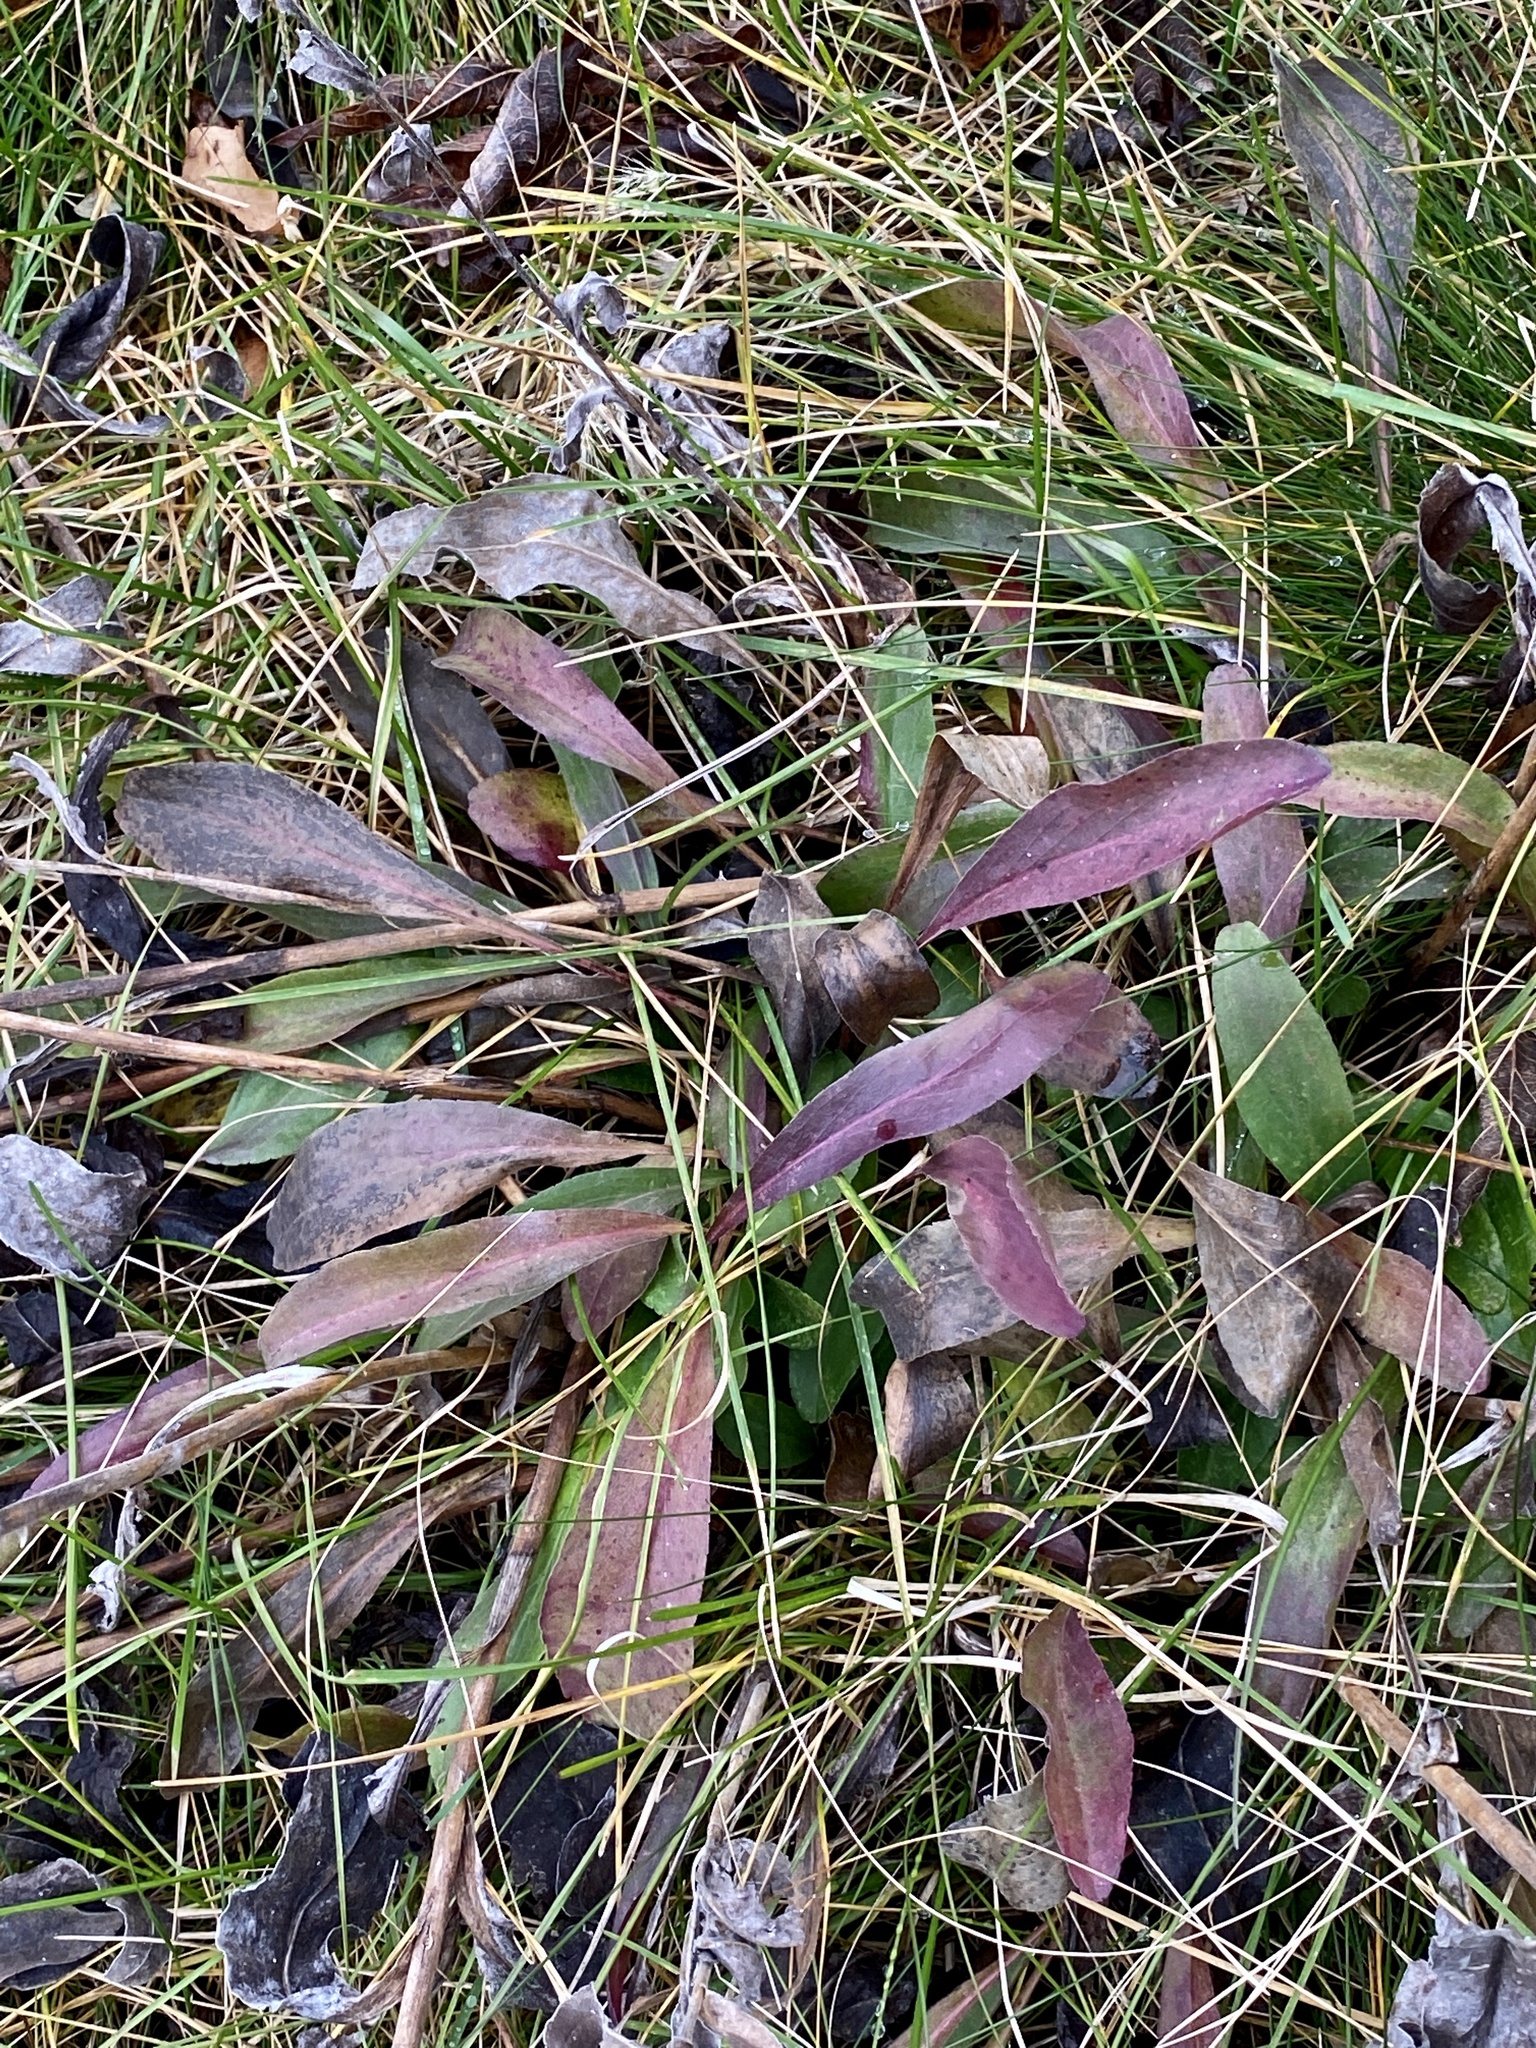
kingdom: Plantae
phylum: Tracheophyta
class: Magnoliopsida
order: Asterales
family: Asteraceae
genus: Solidago
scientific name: Solidago rigida
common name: Rigid goldenrod
